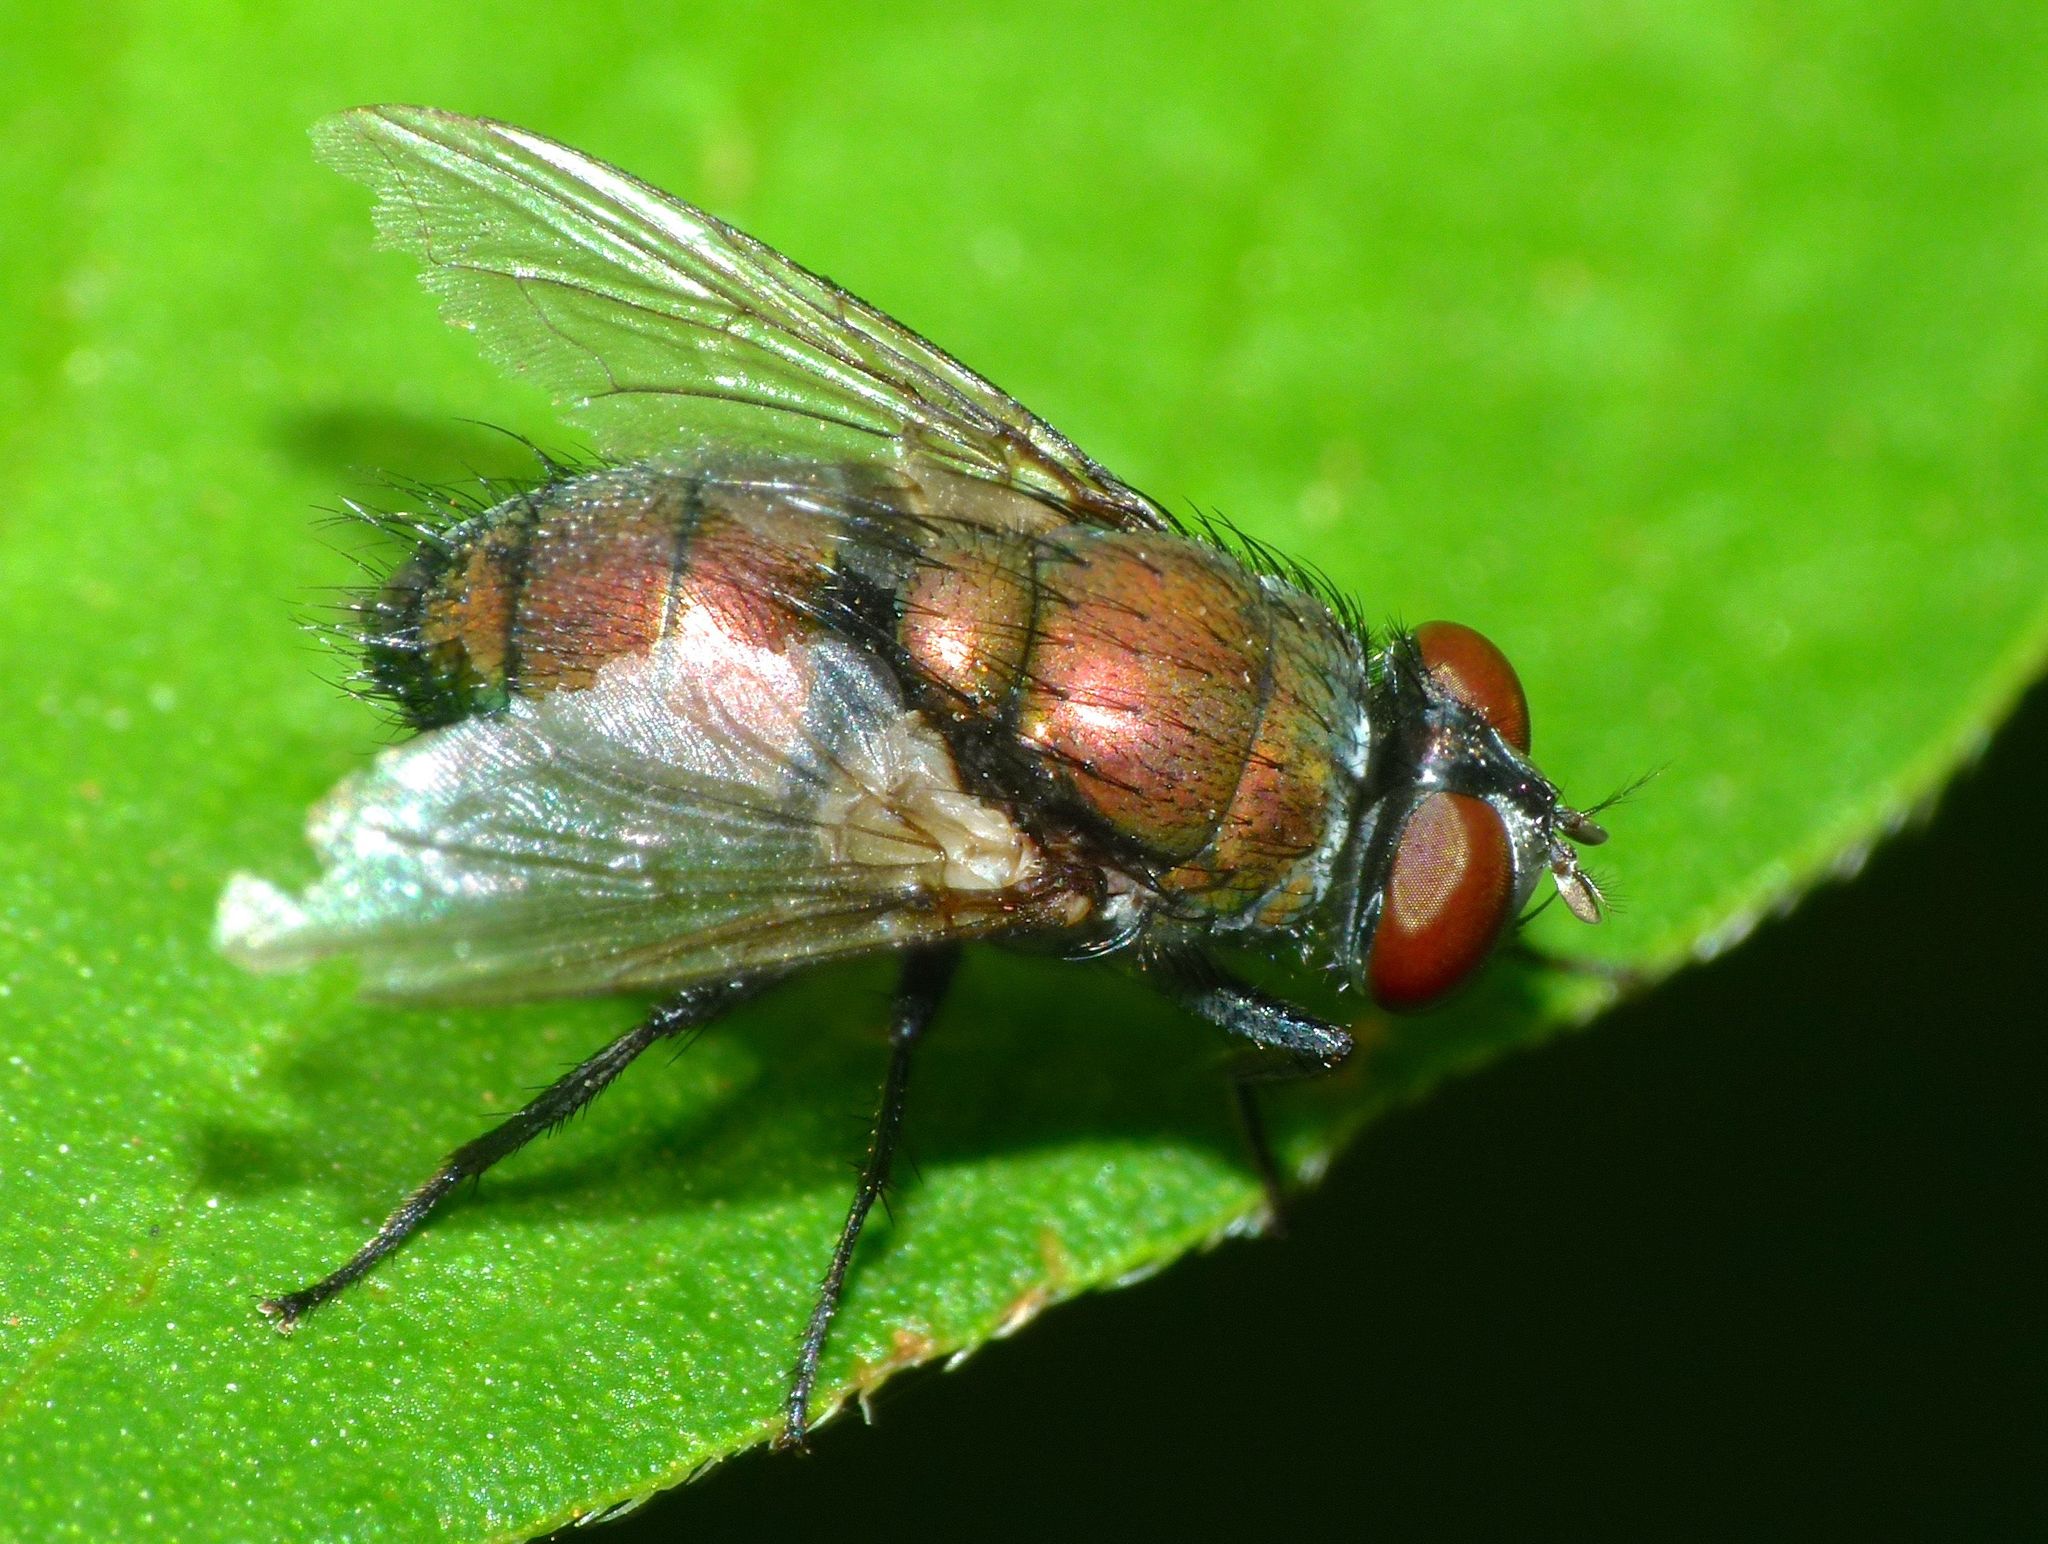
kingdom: Animalia
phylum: Arthropoda
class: Insecta
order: Diptera
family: Calliphoridae
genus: Lucilia
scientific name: Lucilia cuprina
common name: Sheep blow fly
